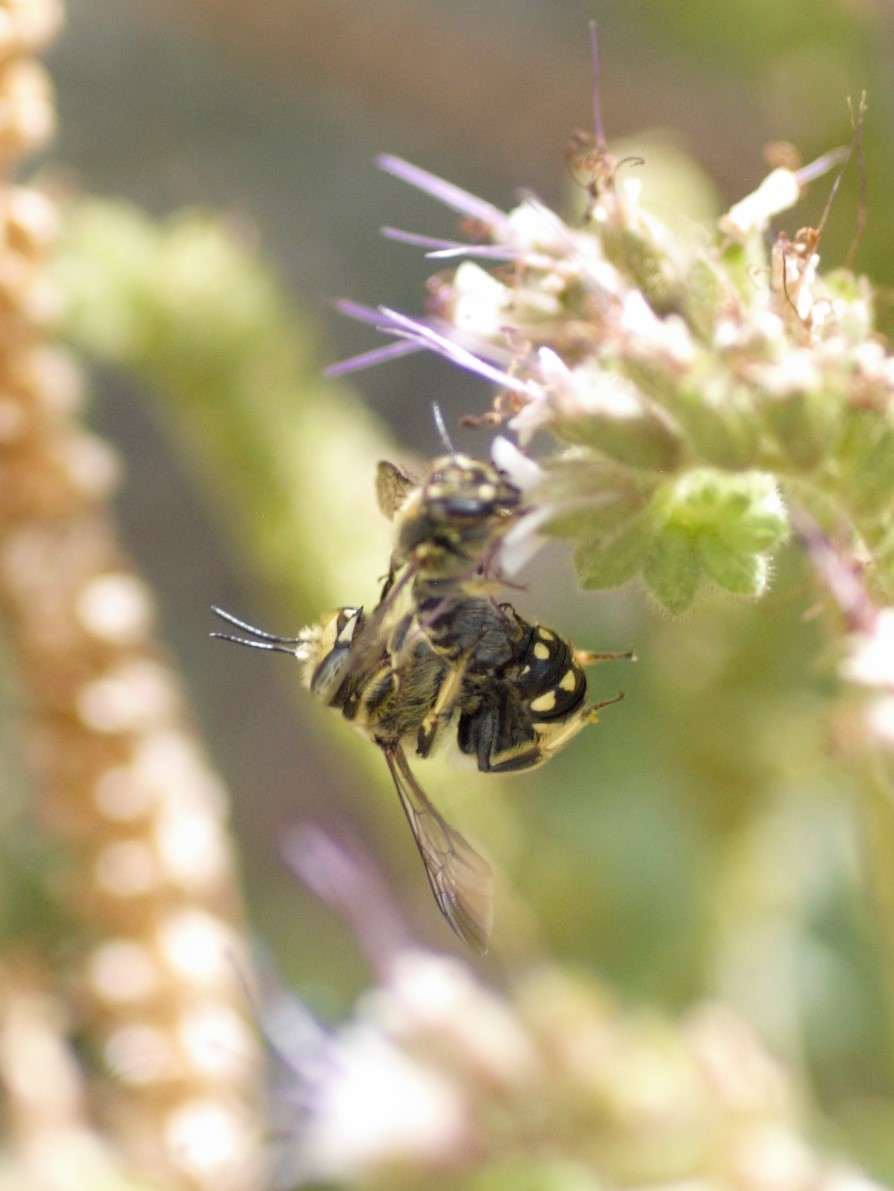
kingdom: Animalia
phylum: Arthropoda
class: Insecta
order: Hymenoptera
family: Megachilidae
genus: Anthidium
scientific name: Anthidium maculosum
